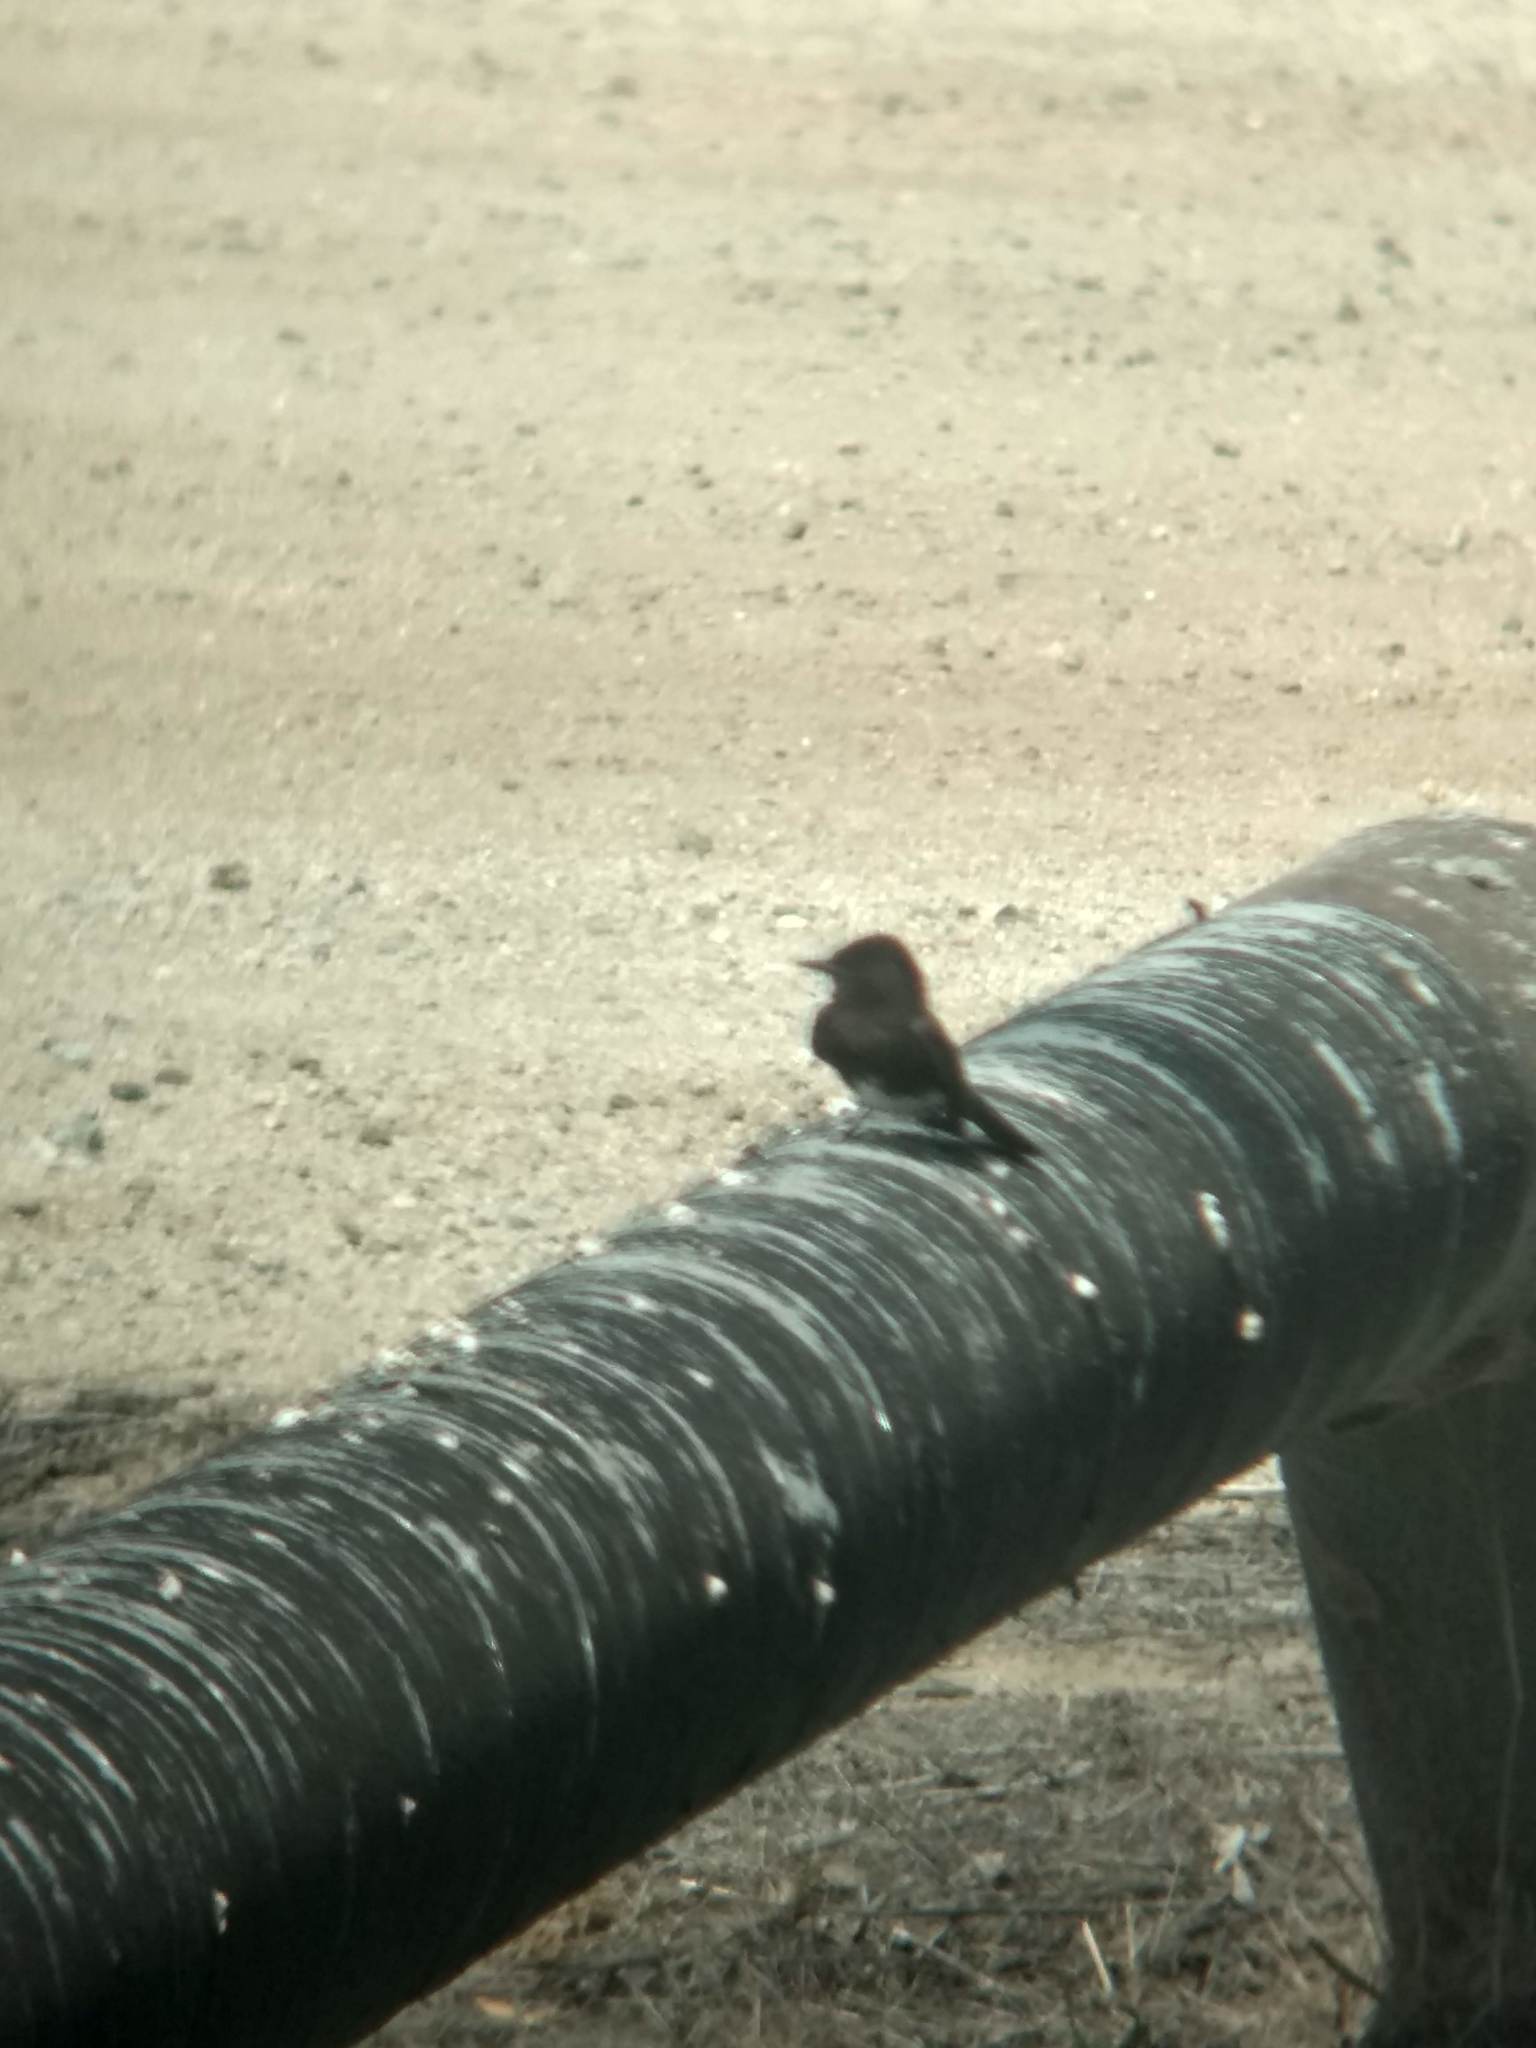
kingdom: Animalia
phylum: Chordata
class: Aves
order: Passeriformes
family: Tyrannidae
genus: Sayornis
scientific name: Sayornis nigricans
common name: Black phoebe
